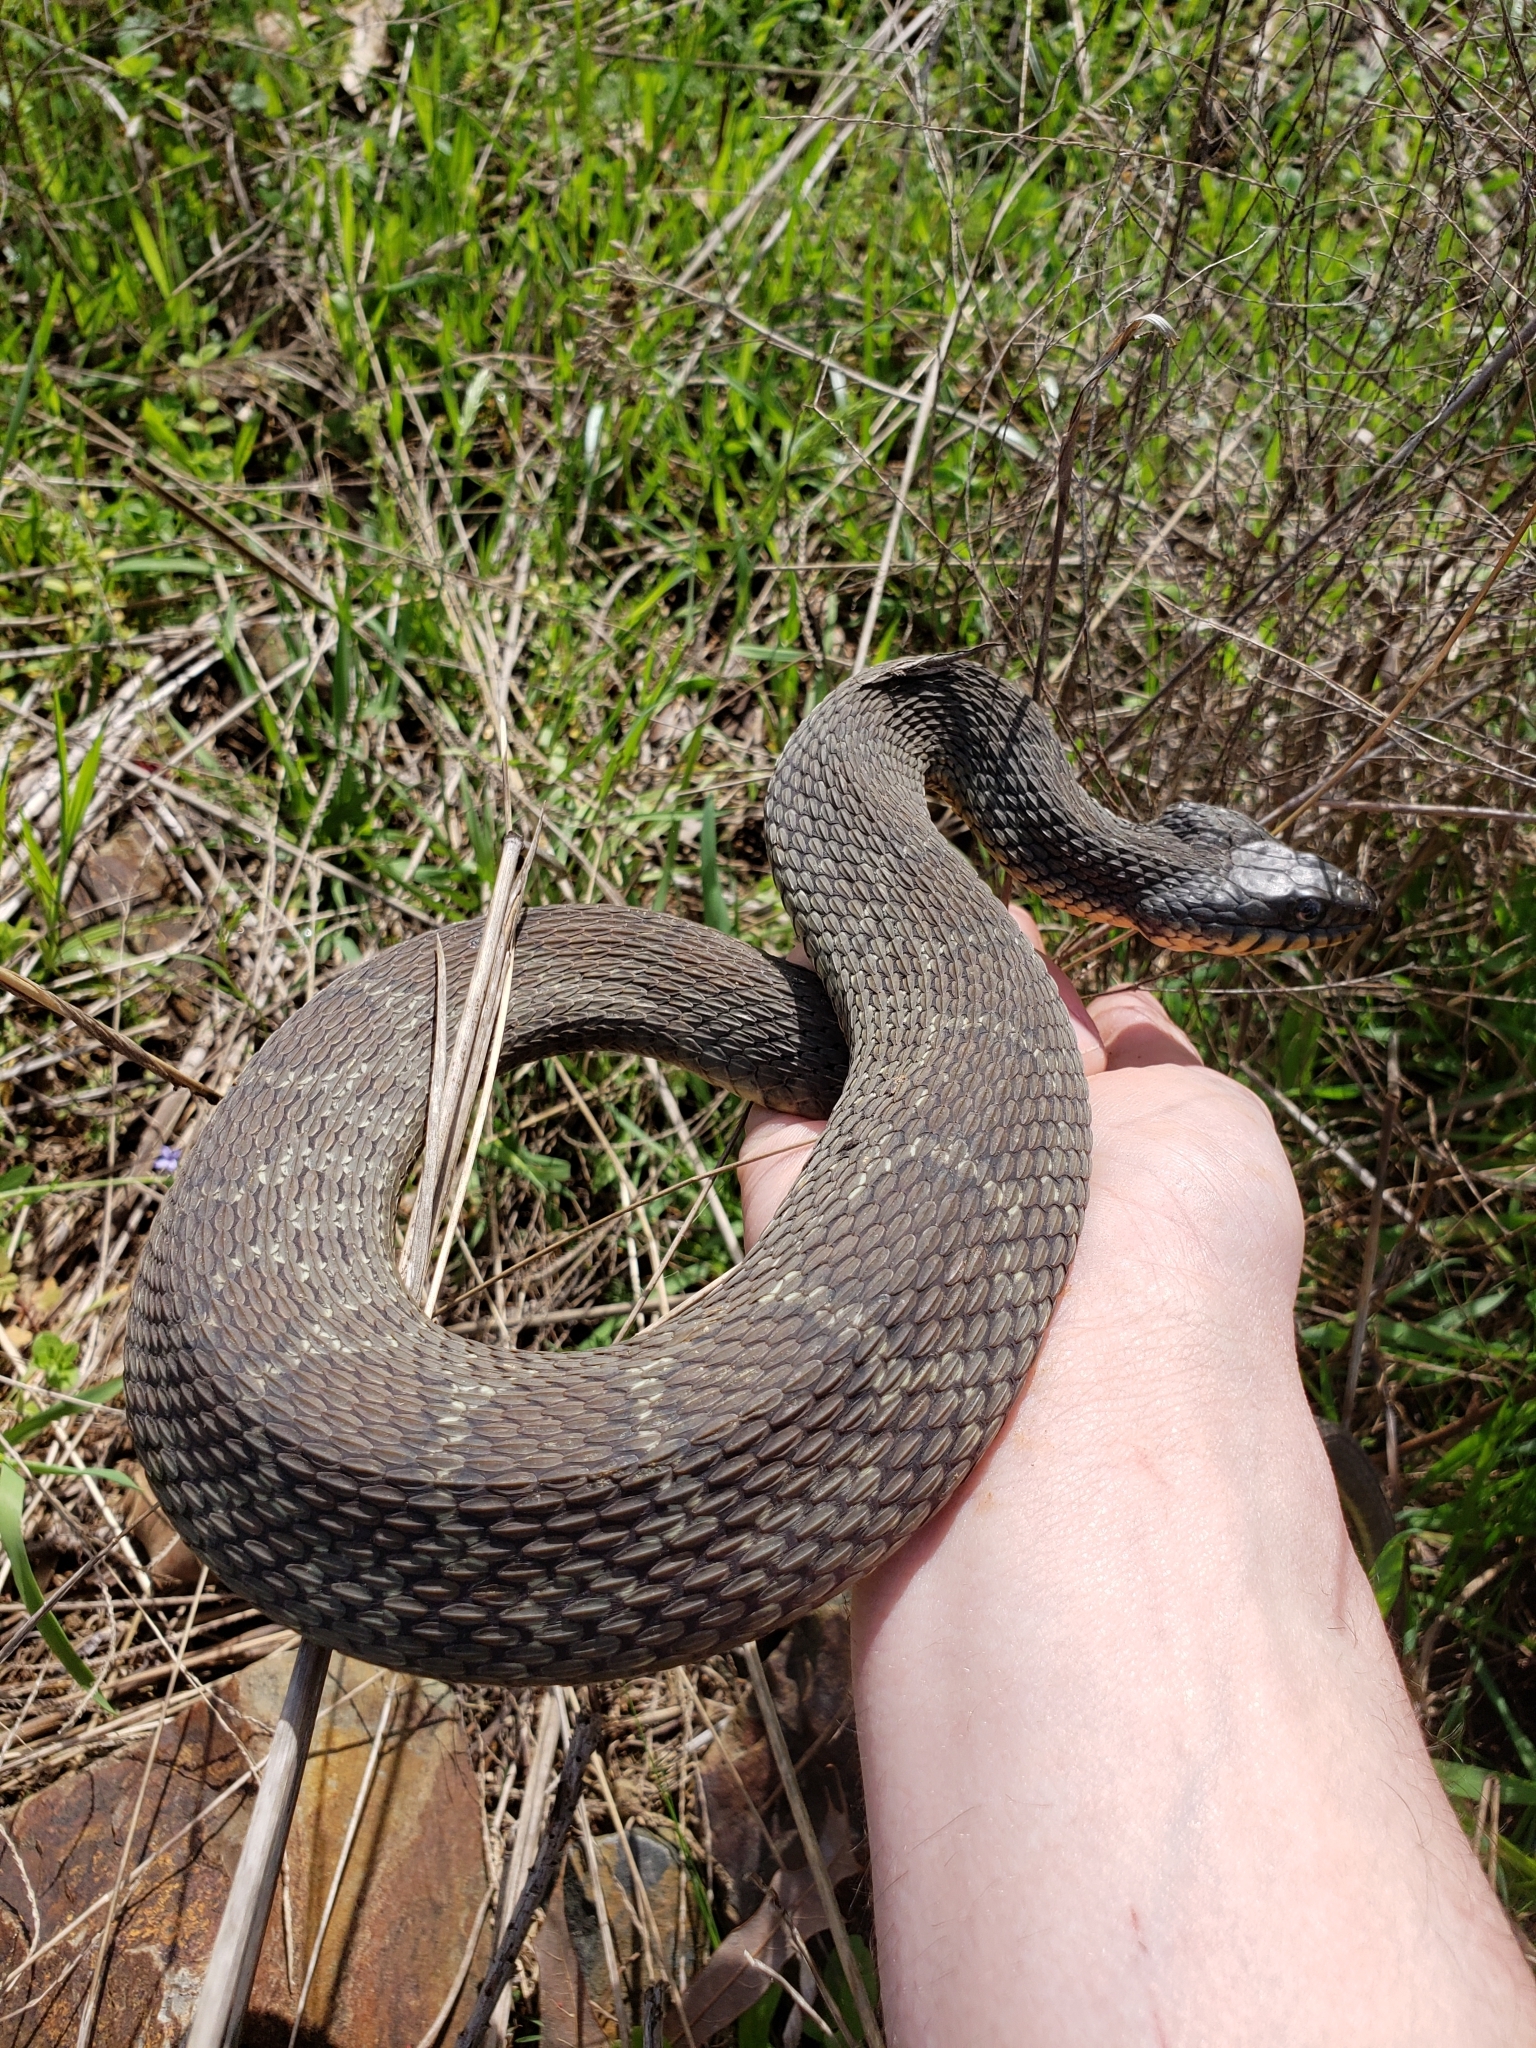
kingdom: Animalia
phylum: Chordata
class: Squamata
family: Colubridae
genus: Nerodia
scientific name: Nerodia erythrogaster
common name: Plainbelly water snake
